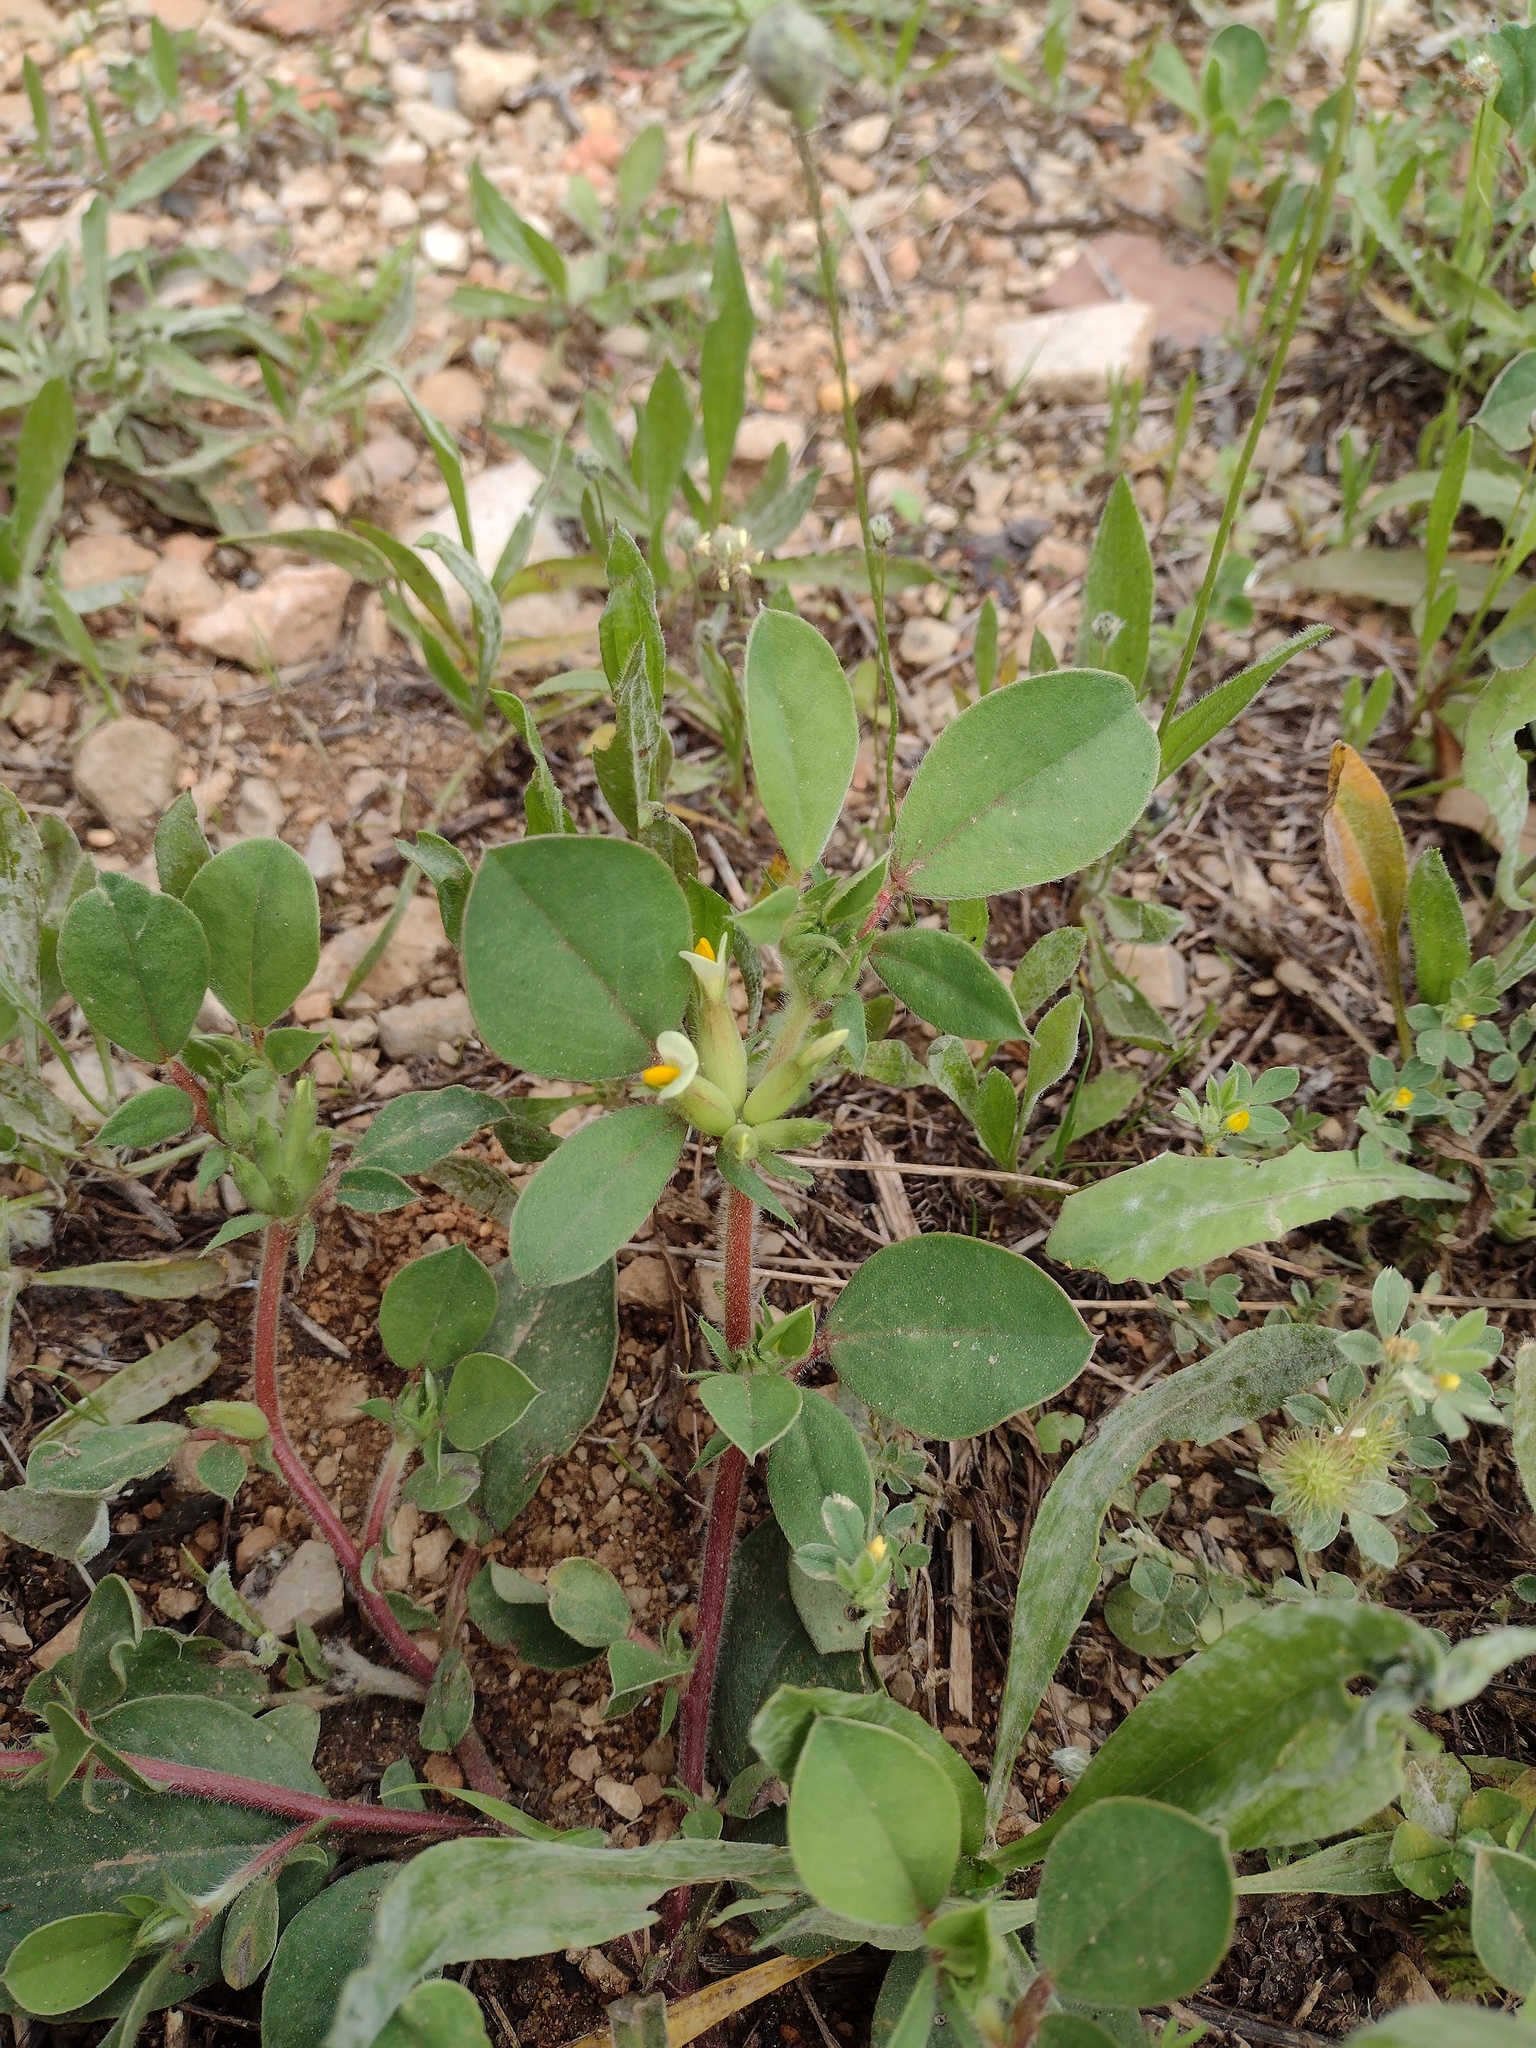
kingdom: Plantae
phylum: Tracheophyta
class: Magnoliopsida
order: Fabales
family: Fabaceae
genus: Tripodion
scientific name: Tripodion tetraphyllum
